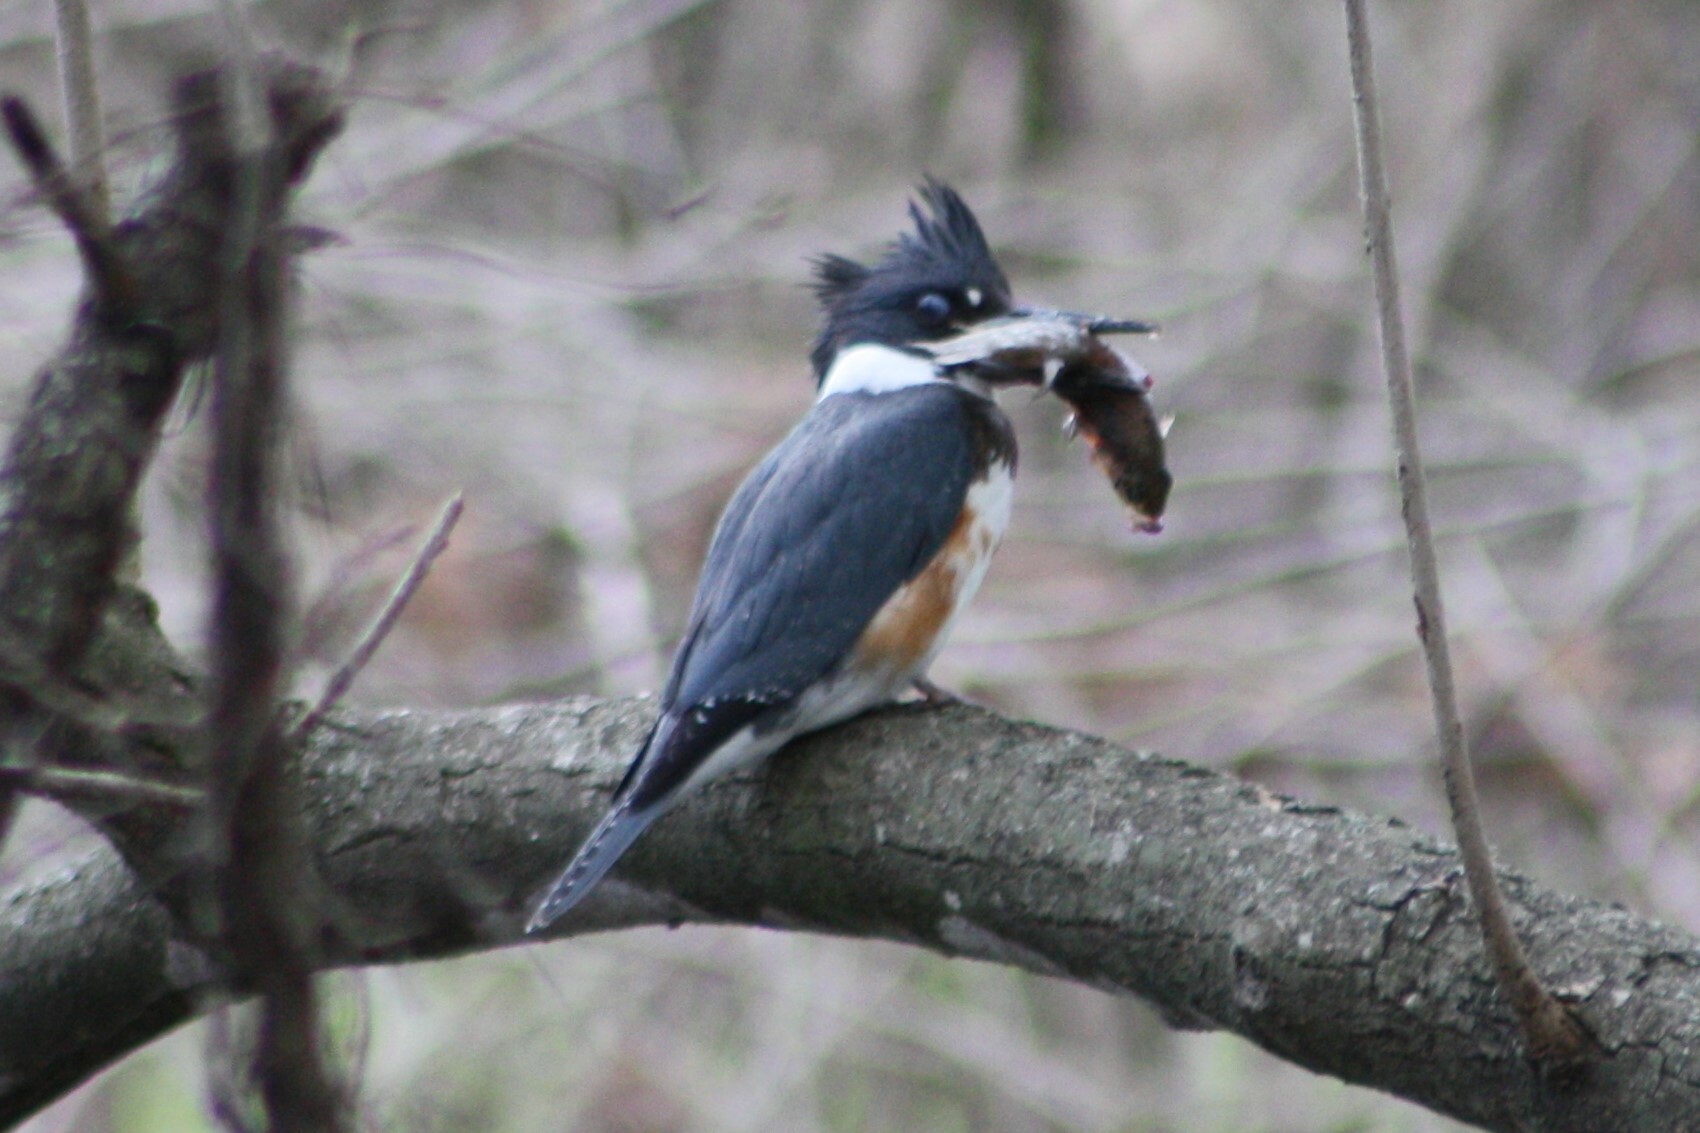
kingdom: Animalia
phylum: Chordata
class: Aves
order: Coraciiformes
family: Alcedinidae
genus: Megaceryle
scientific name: Megaceryle alcyon
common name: Belted kingfisher
